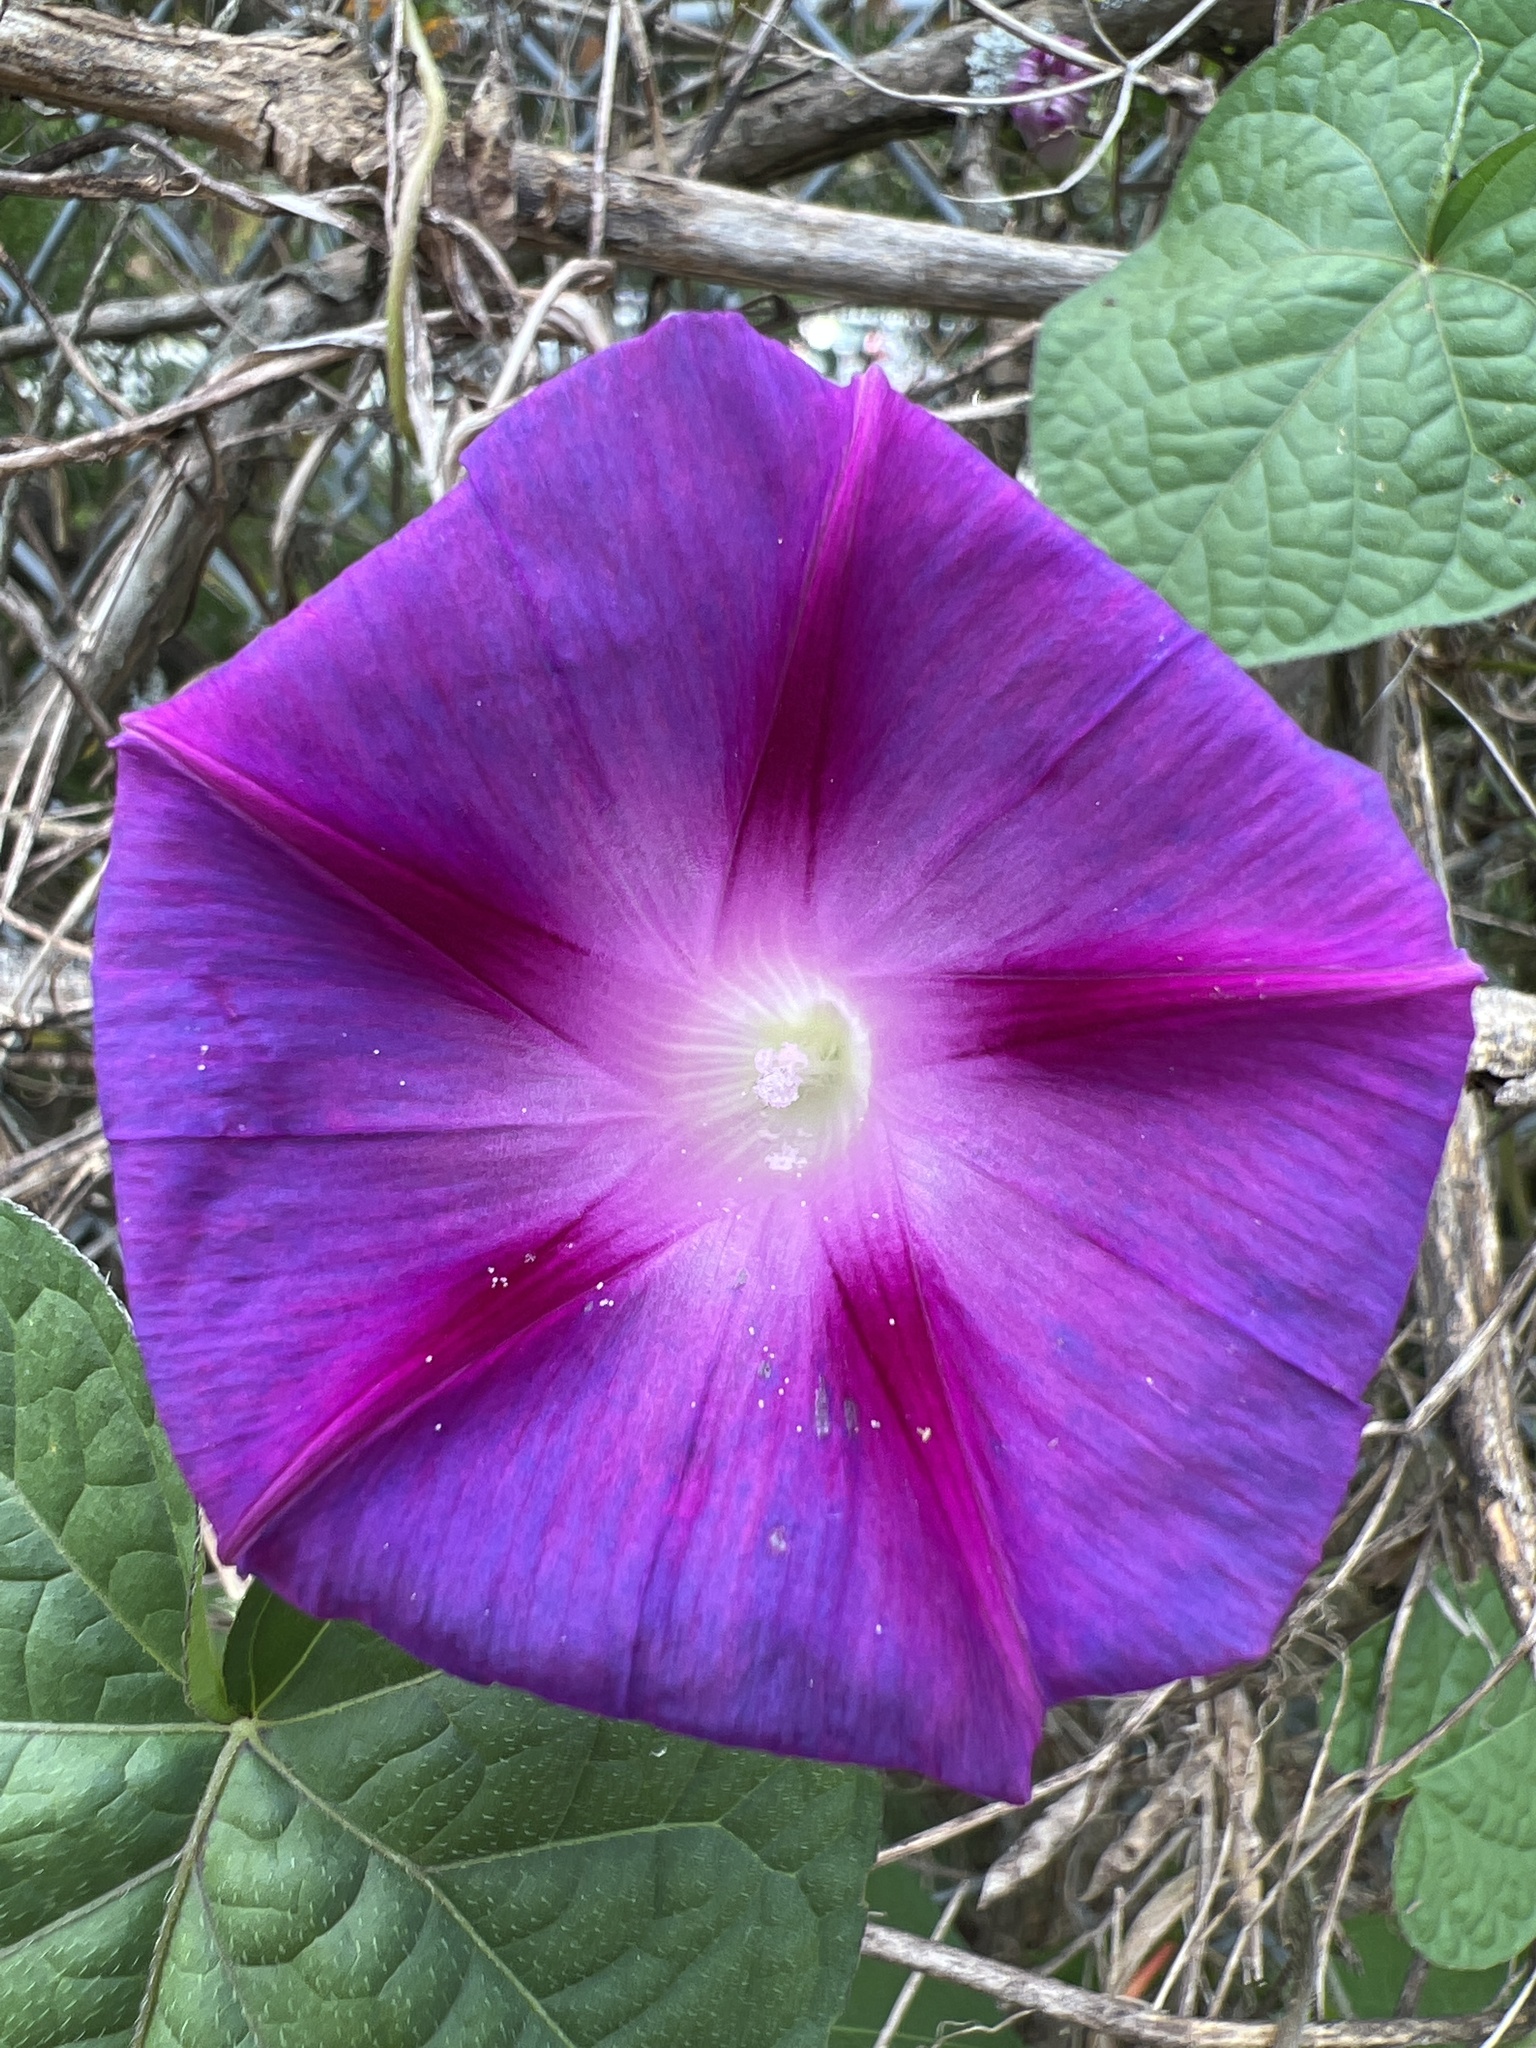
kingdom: Plantae
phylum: Tracheophyta
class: Magnoliopsida
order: Solanales
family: Convolvulaceae
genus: Ipomoea
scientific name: Ipomoea purpurea
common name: Common morning-glory
